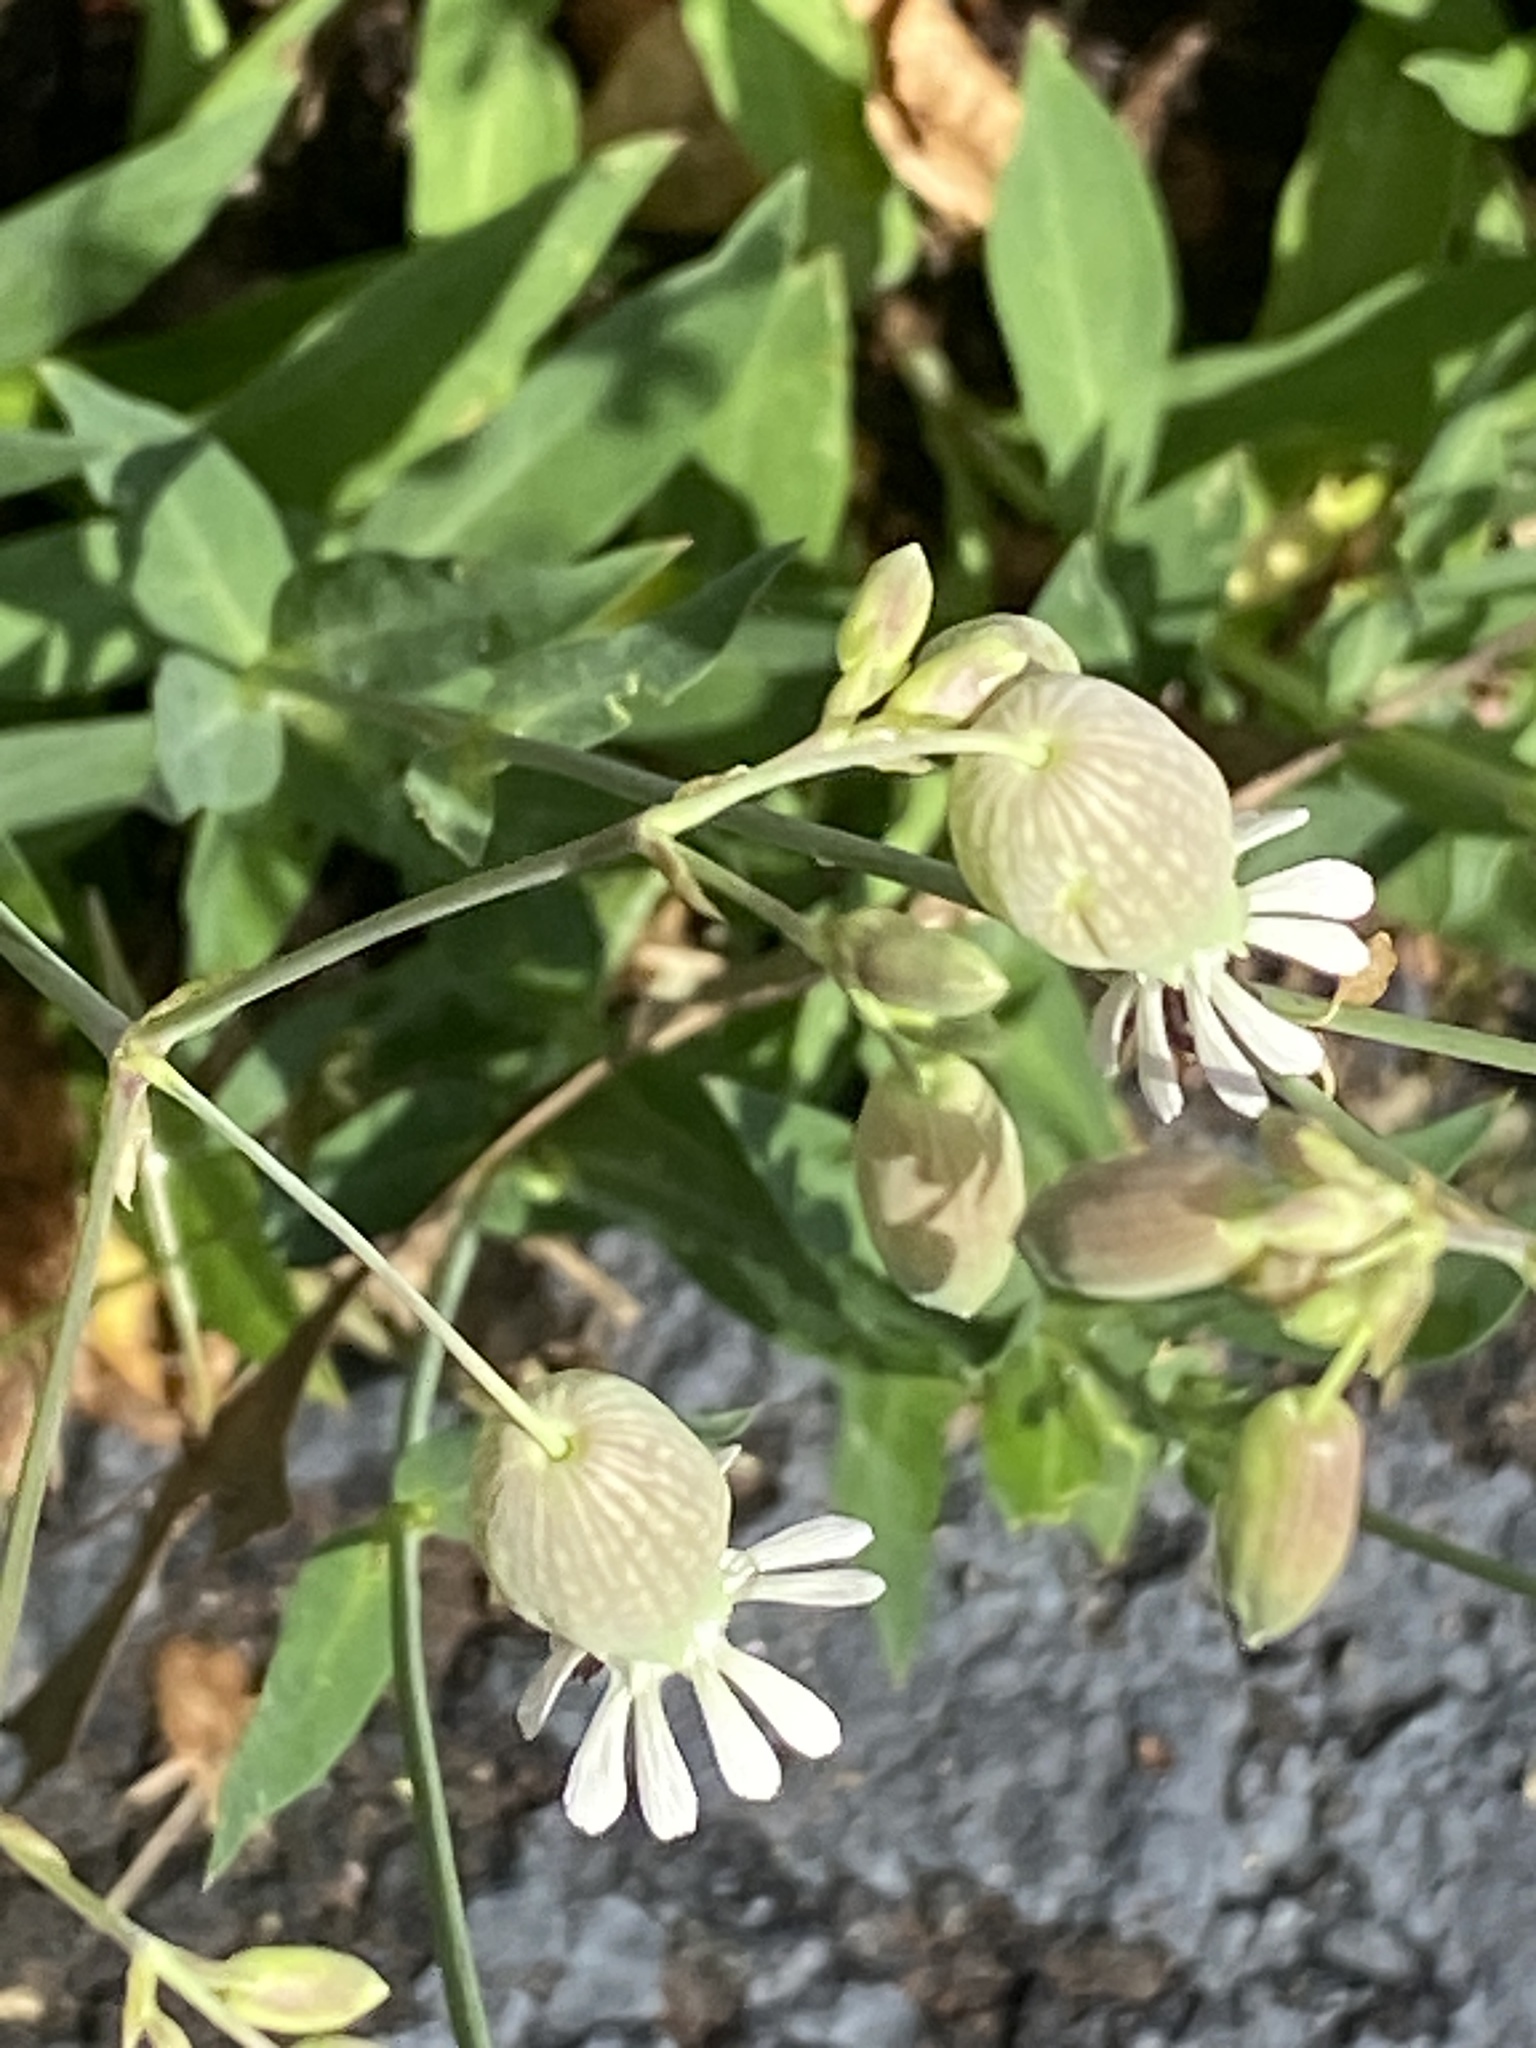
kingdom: Plantae
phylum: Tracheophyta
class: Magnoliopsida
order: Caryophyllales
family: Caryophyllaceae
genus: Silene
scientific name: Silene vulgaris
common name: Bladder campion
